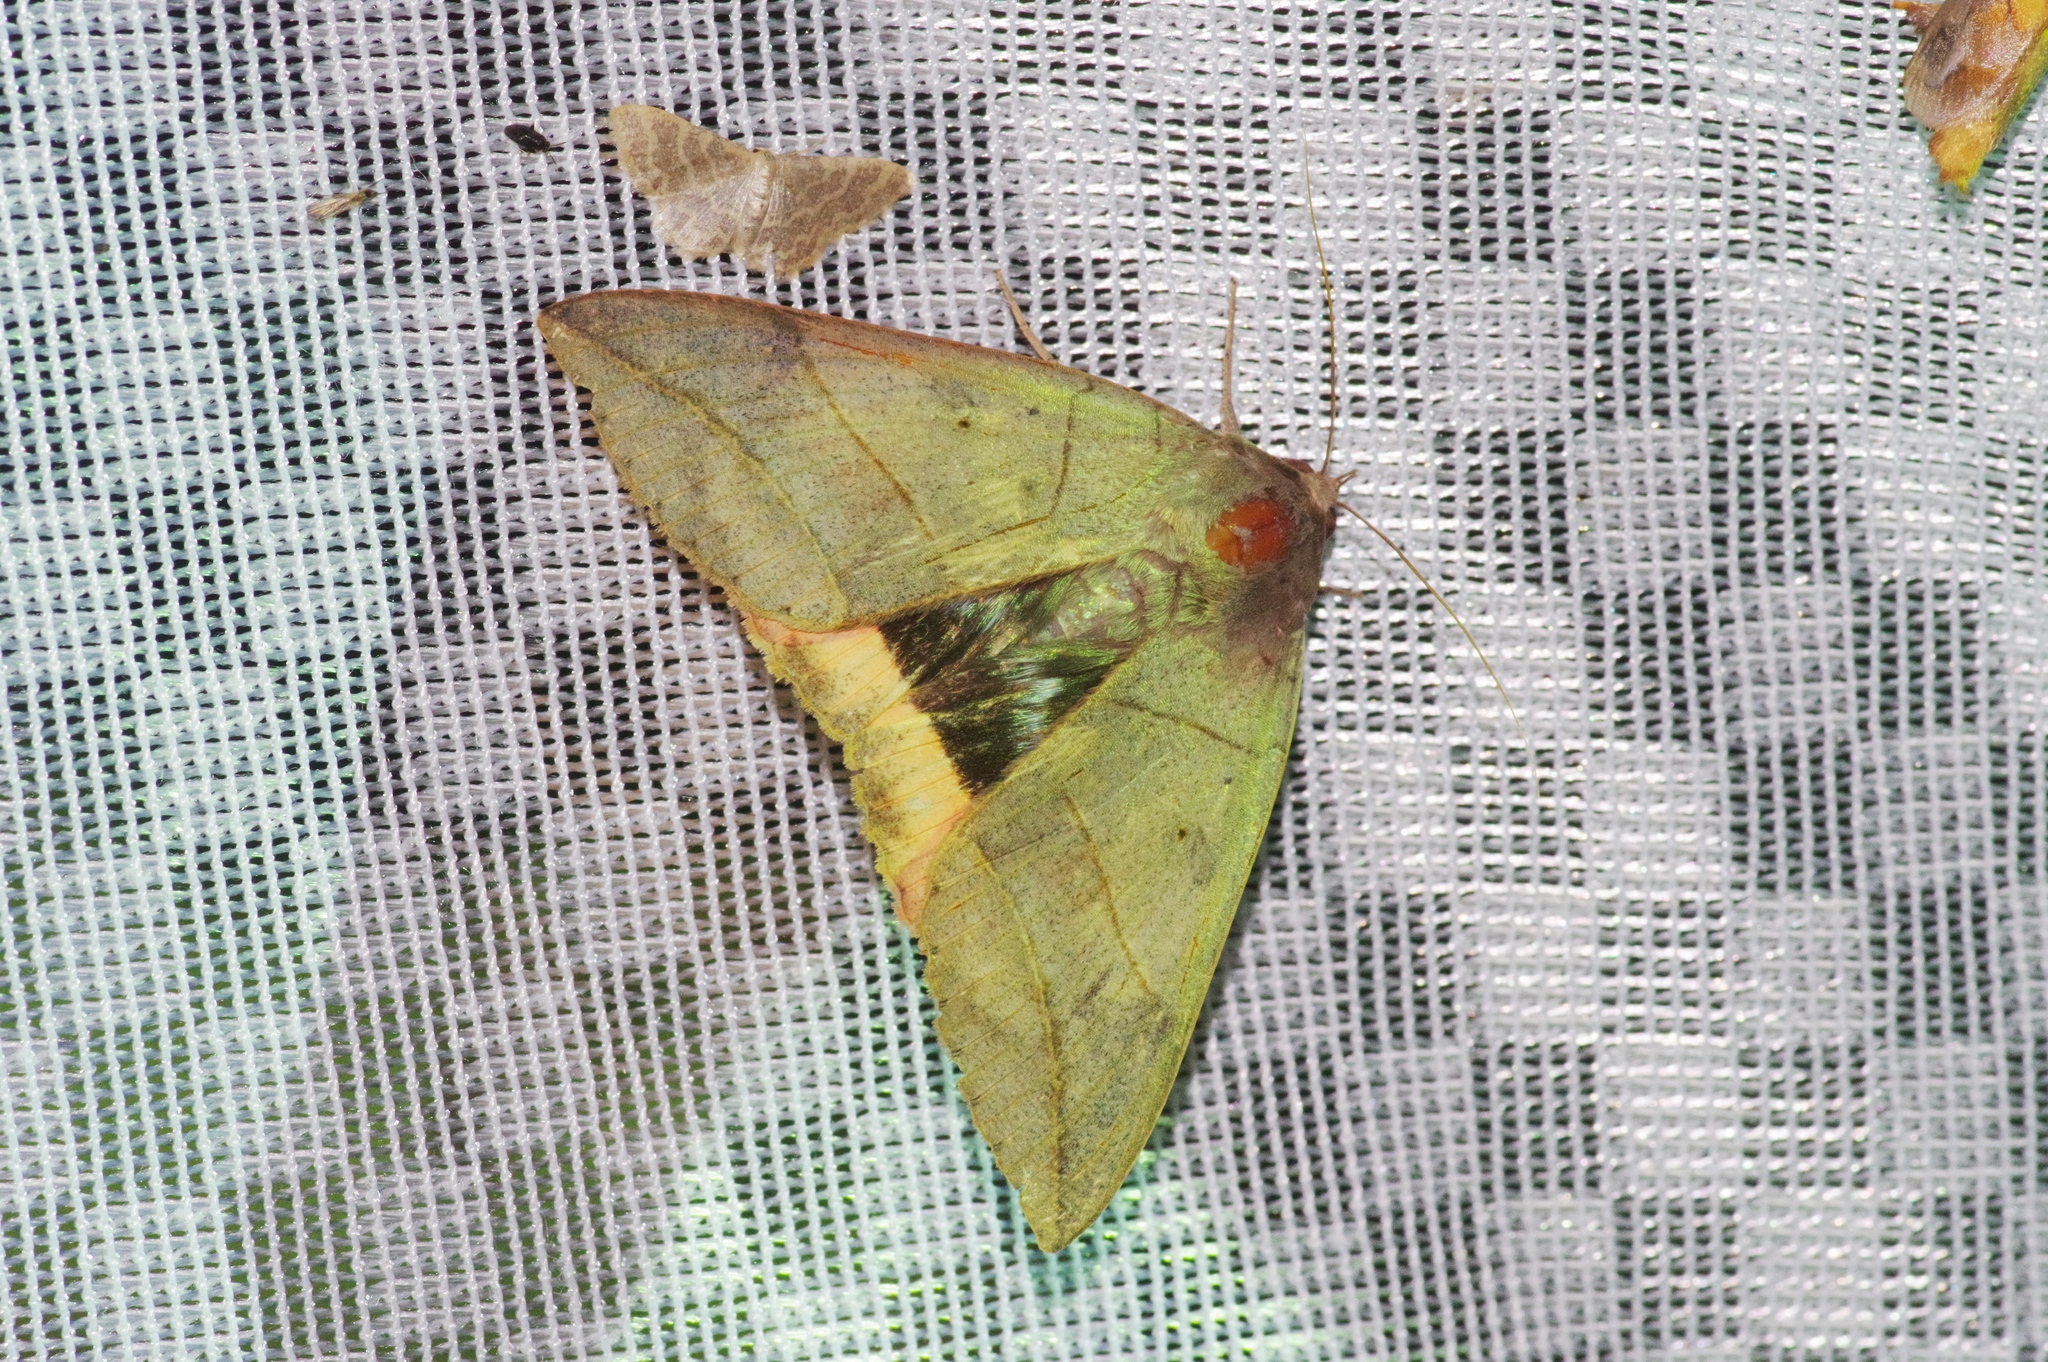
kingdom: Animalia
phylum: Arthropoda
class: Insecta
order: Lepidoptera
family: Erebidae
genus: Thyas
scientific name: Thyas juno
